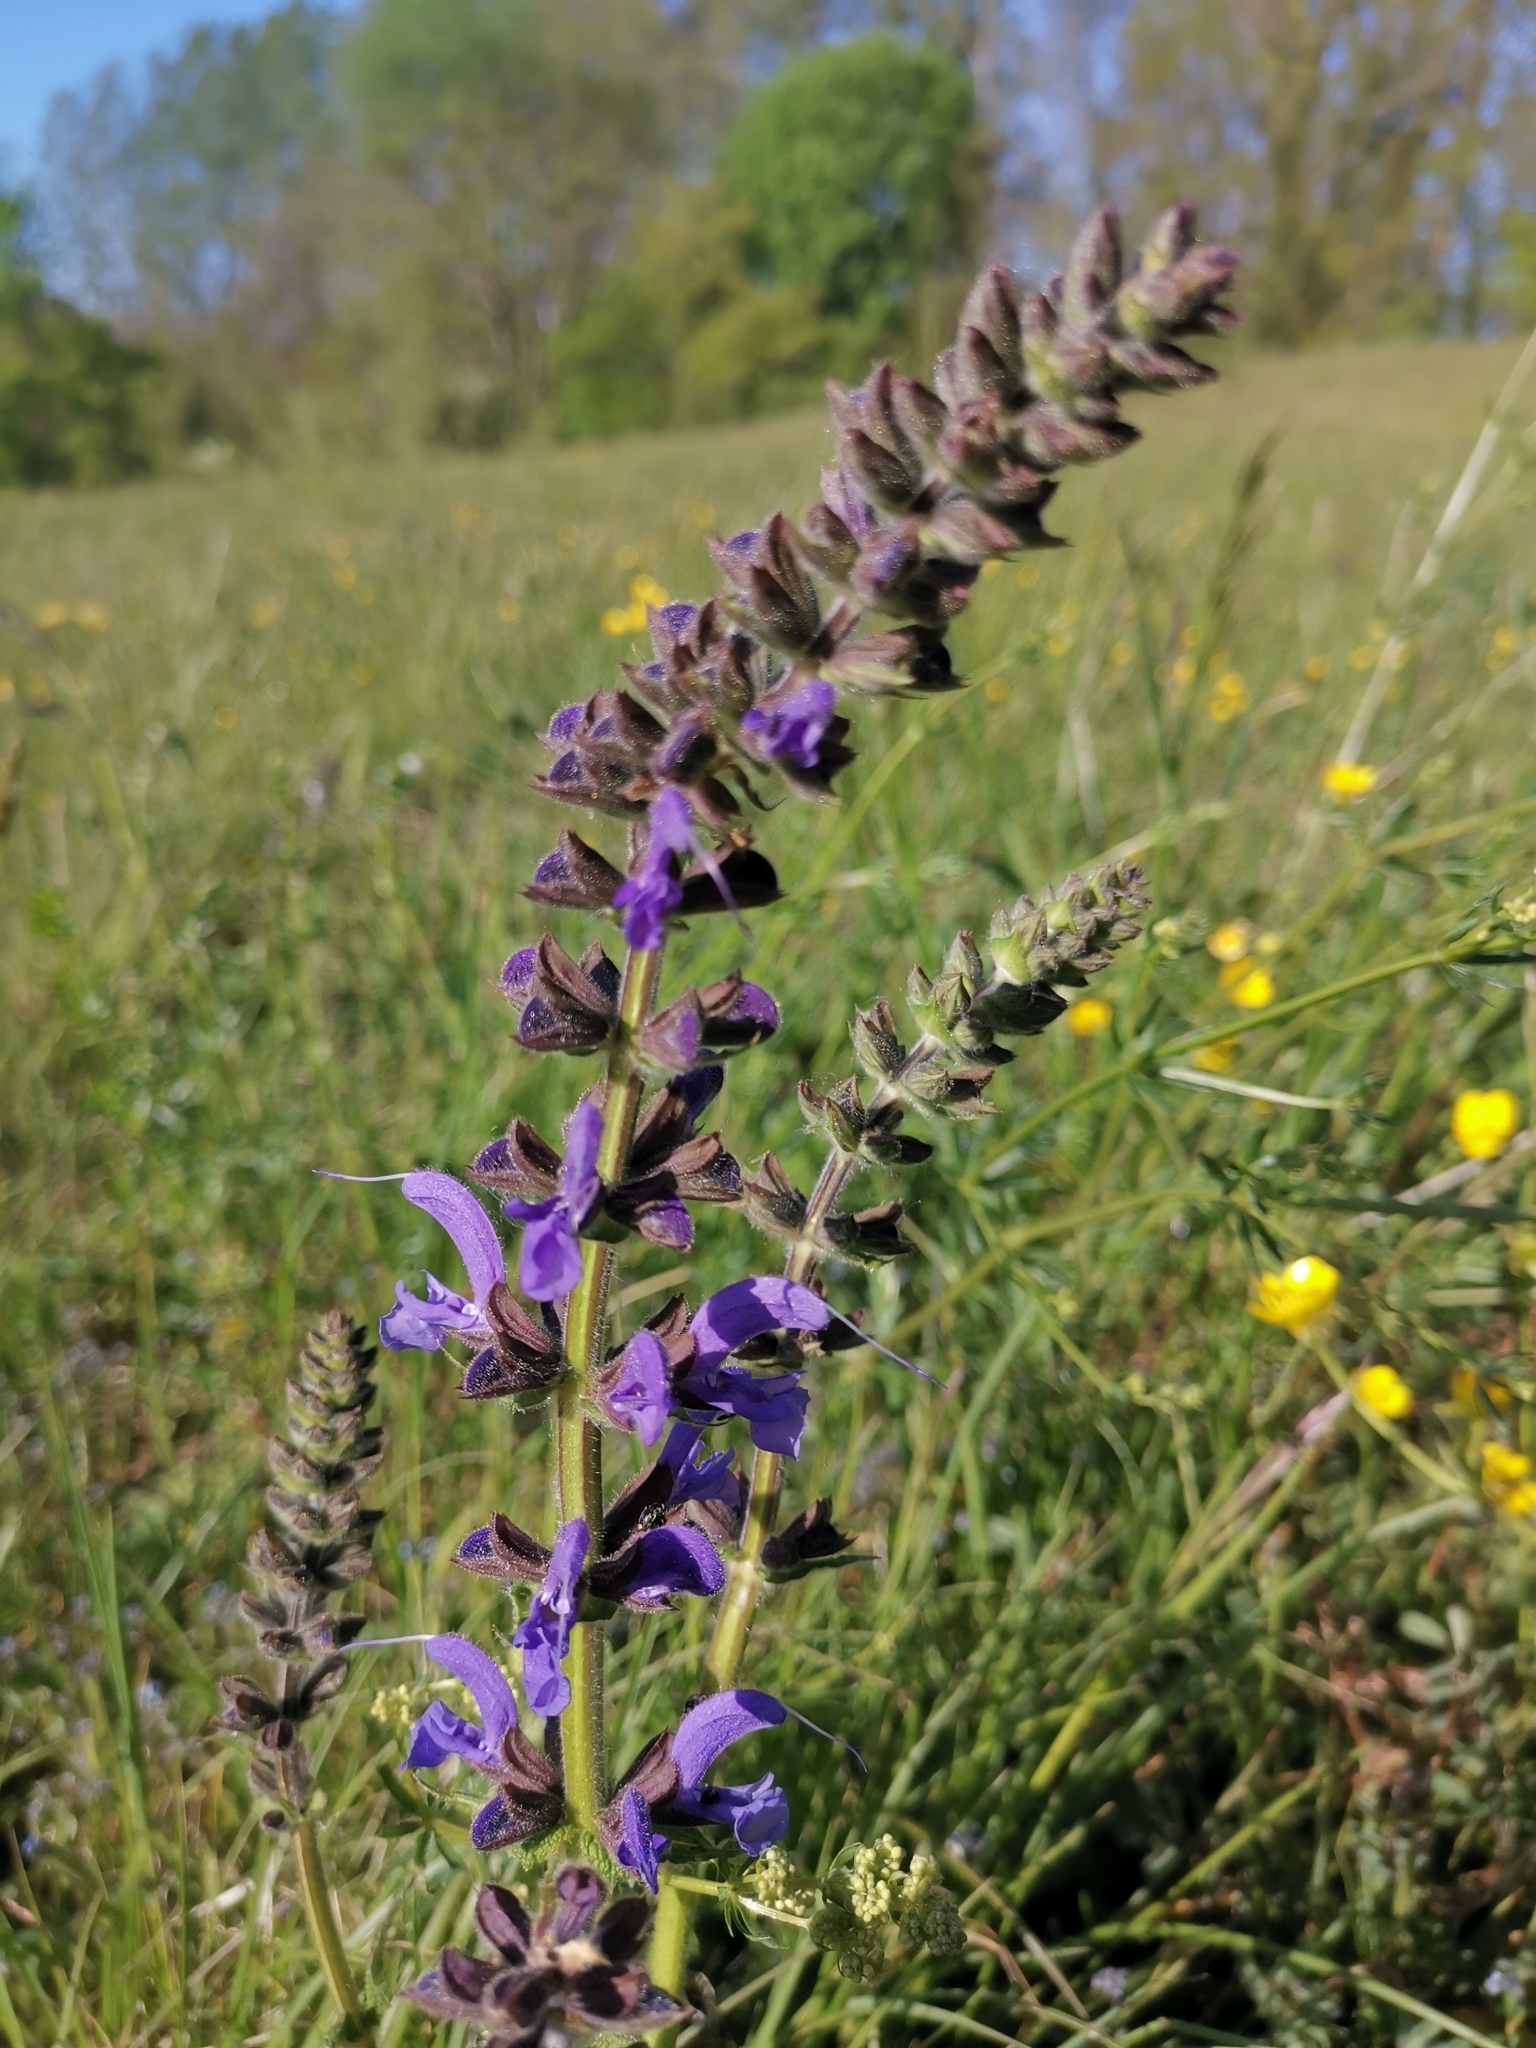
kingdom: Plantae
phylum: Tracheophyta
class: Magnoliopsida
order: Lamiales
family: Lamiaceae
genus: Salvia
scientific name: Salvia pratensis
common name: Meadow sage
